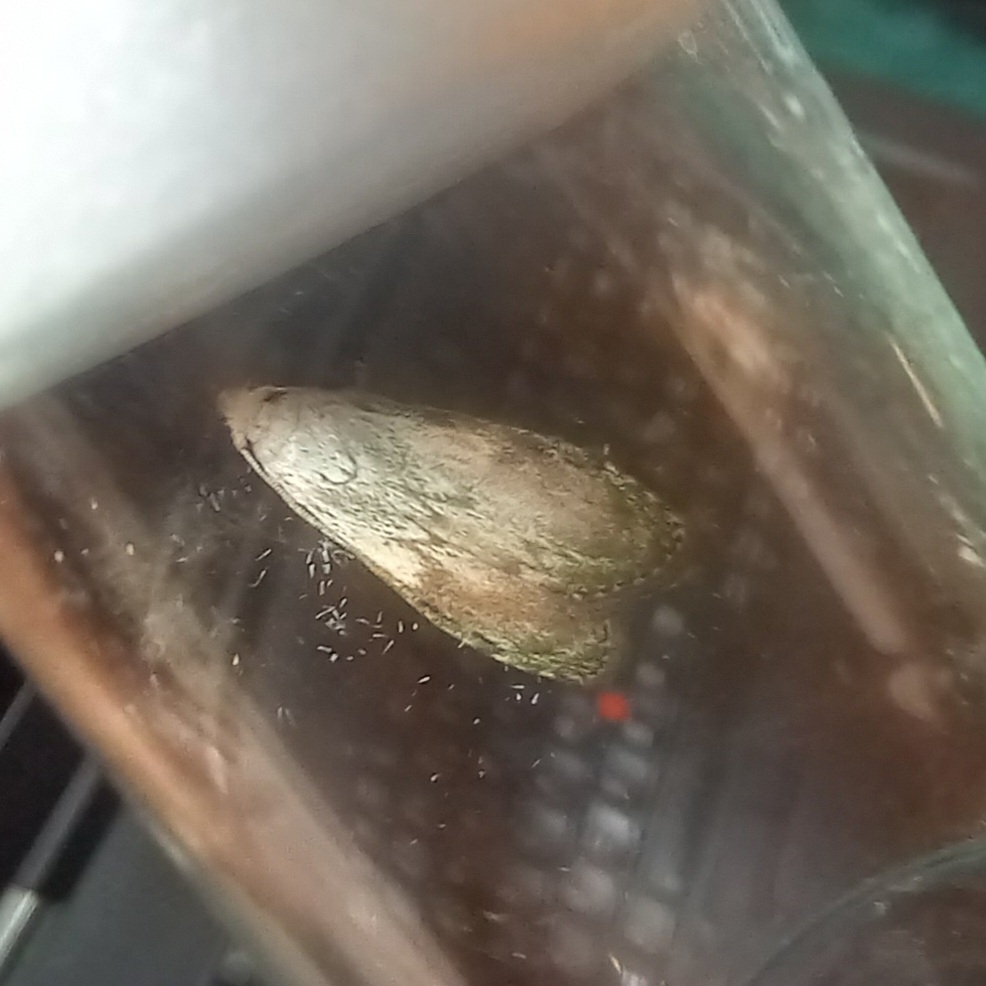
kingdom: Animalia
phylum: Arthropoda
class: Insecta
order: Lepidoptera
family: Pyralidae
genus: Aphomia
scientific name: Aphomia sociella
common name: Bee moth
